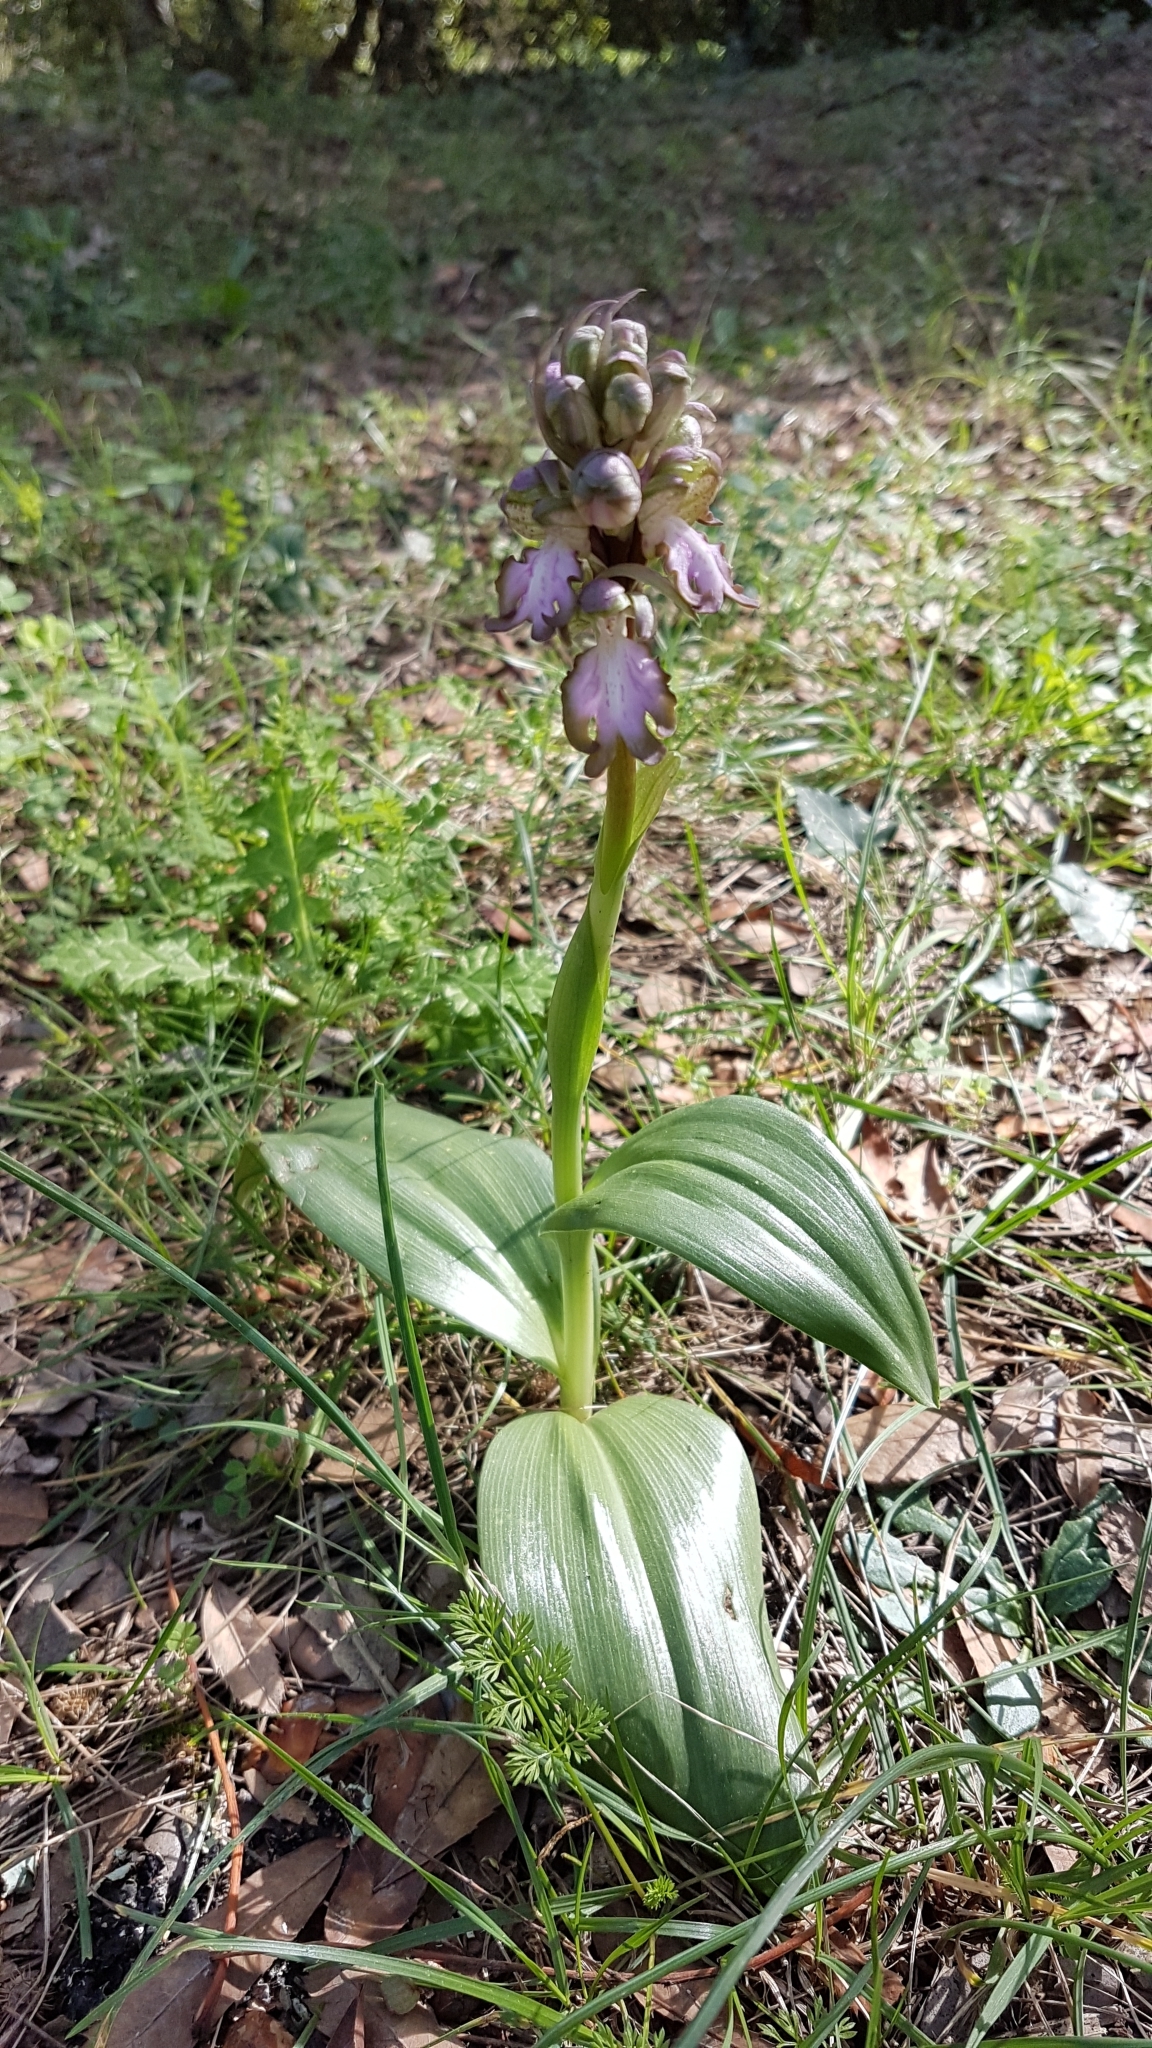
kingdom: Plantae
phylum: Tracheophyta
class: Liliopsida
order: Asparagales
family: Orchidaceae
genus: Himantoglossum
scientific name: Himantoglossum robertianum
